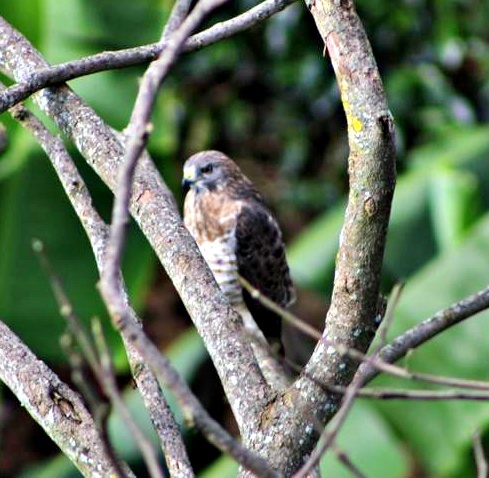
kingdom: Animalia
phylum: Chordata
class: Aves
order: Accipitriformes
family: Accipitridae
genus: Buteo
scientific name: Buteo platypterus
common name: Broad-winged hawk
